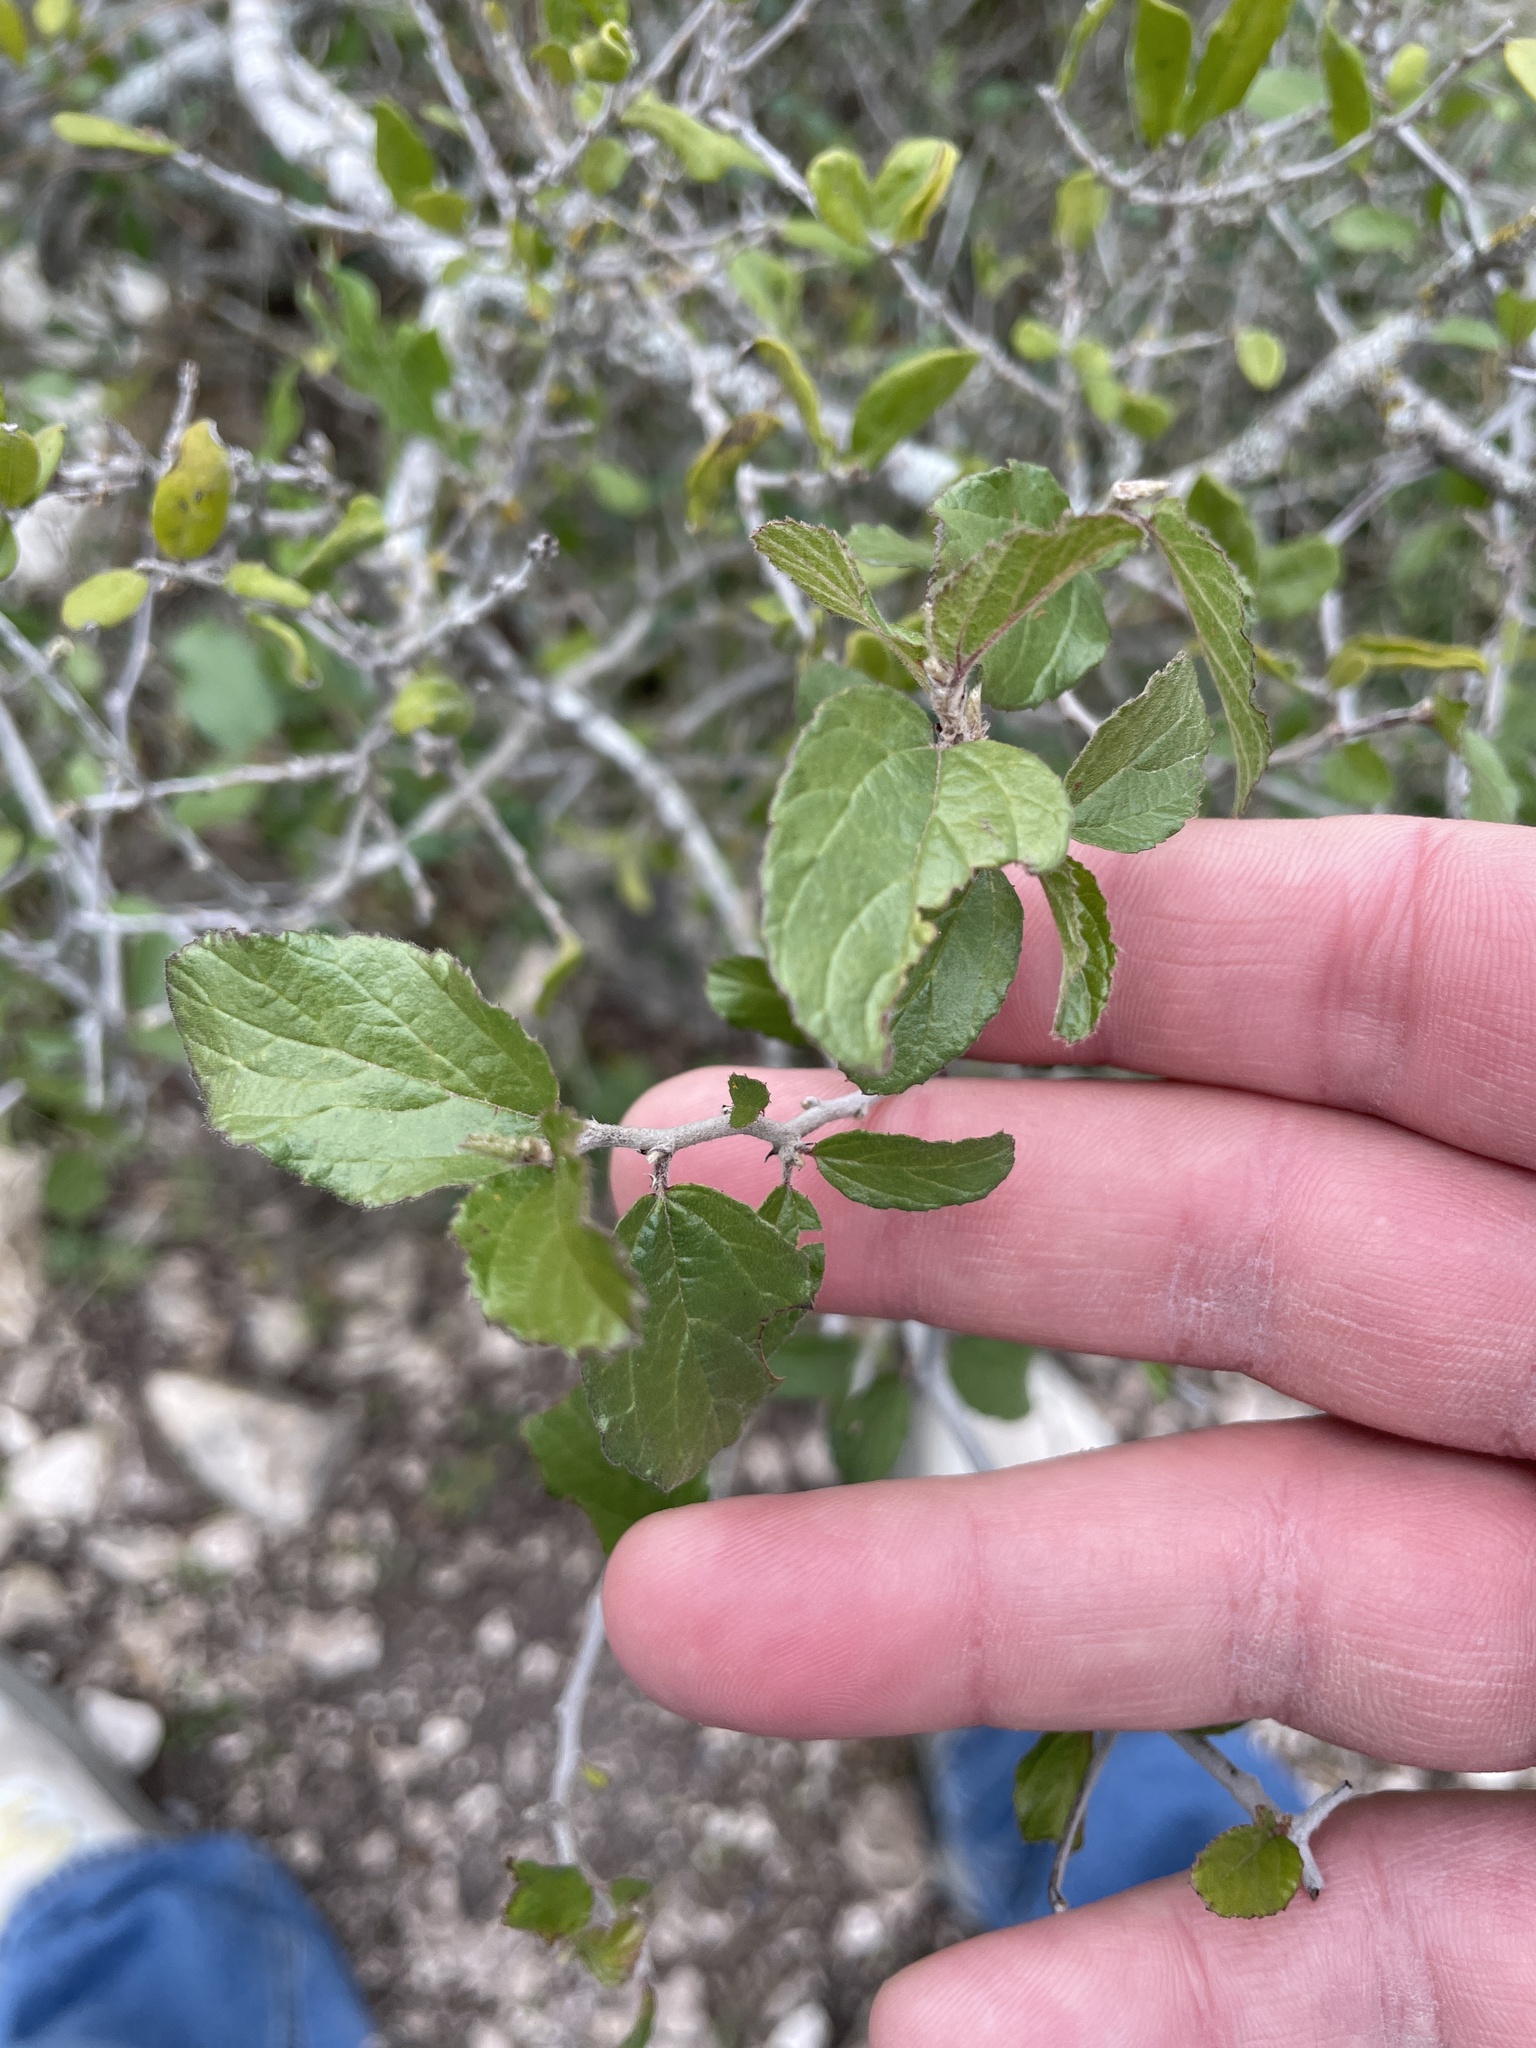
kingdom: Plantae
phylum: Tracheophyta
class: Magnoliopsida
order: Rosales
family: Rhamnaceae
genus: Colubrina
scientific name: Colubrina texensis
